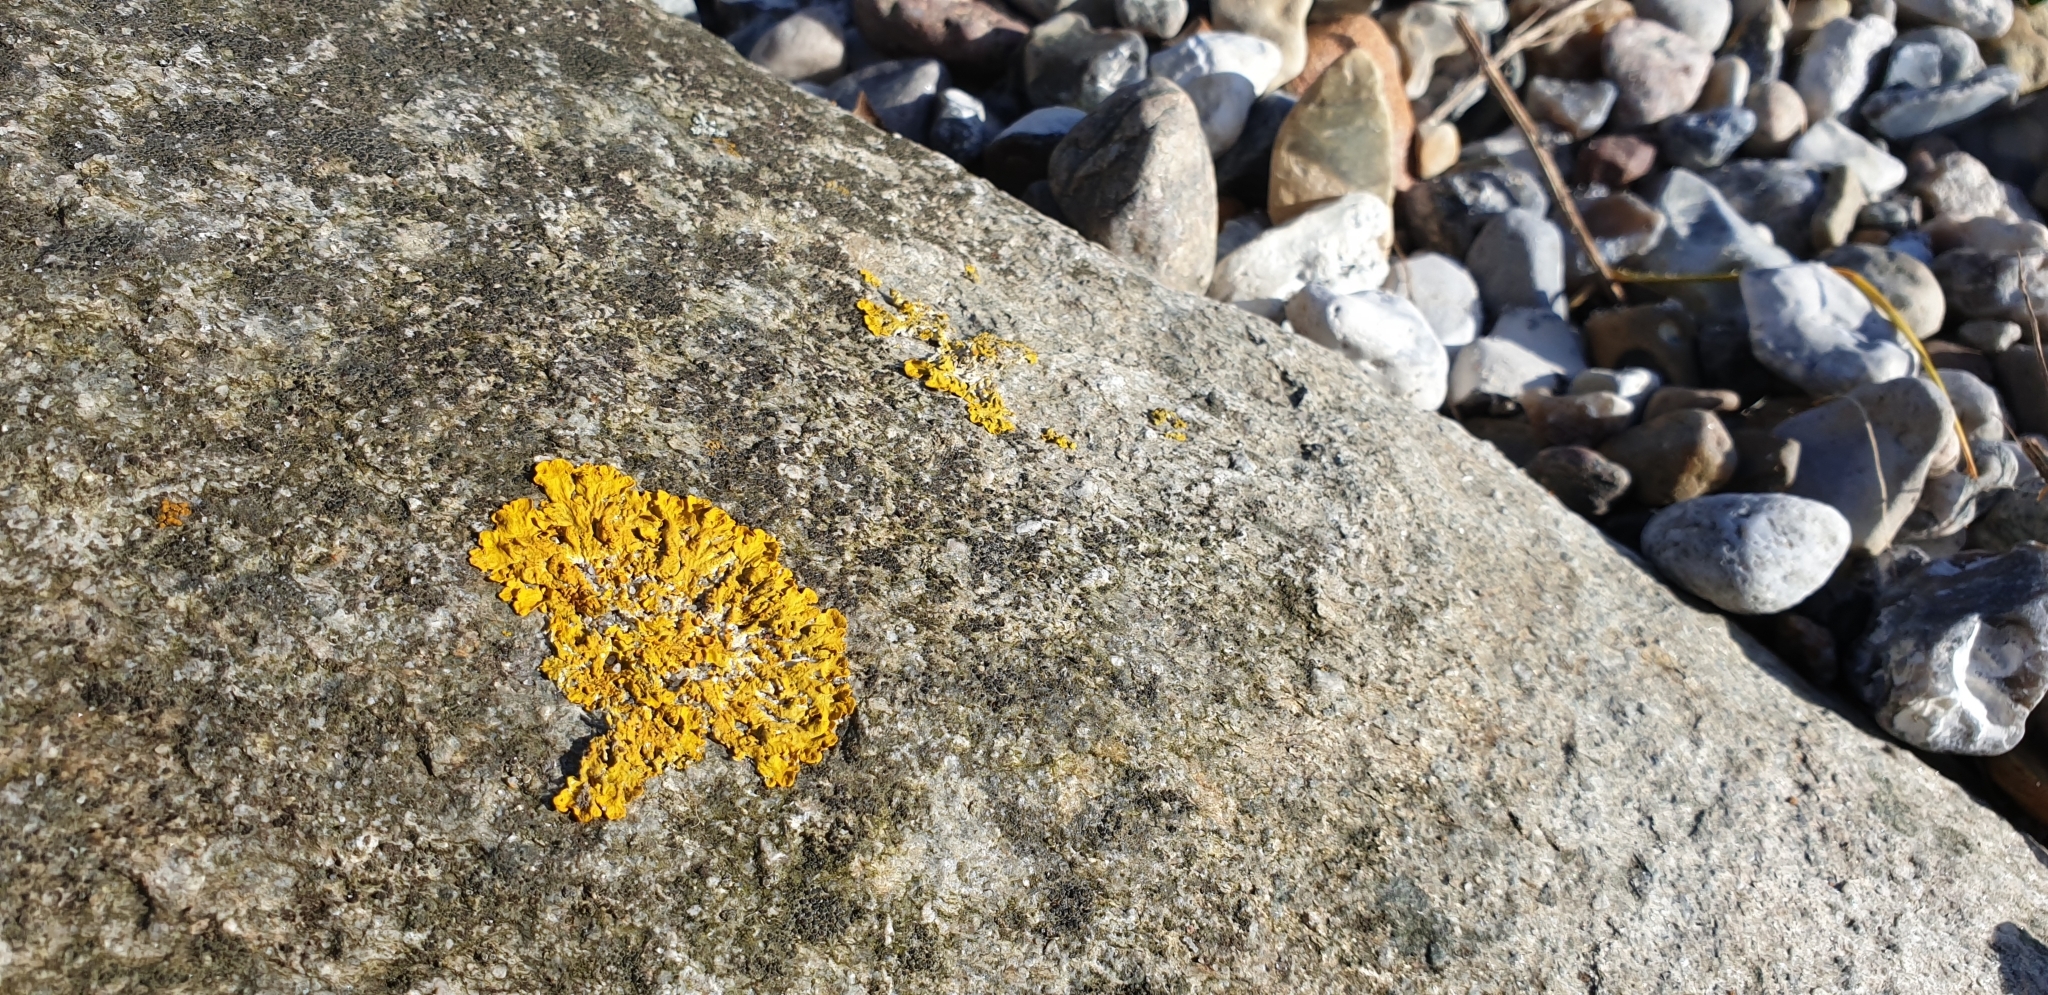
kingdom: Fungi
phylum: Ascomycota
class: Lecanoromycetes
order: Teloschistales
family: Teloschistaceae
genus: Xanthoria
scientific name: Xanthoria parietina
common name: Common orange lichen
